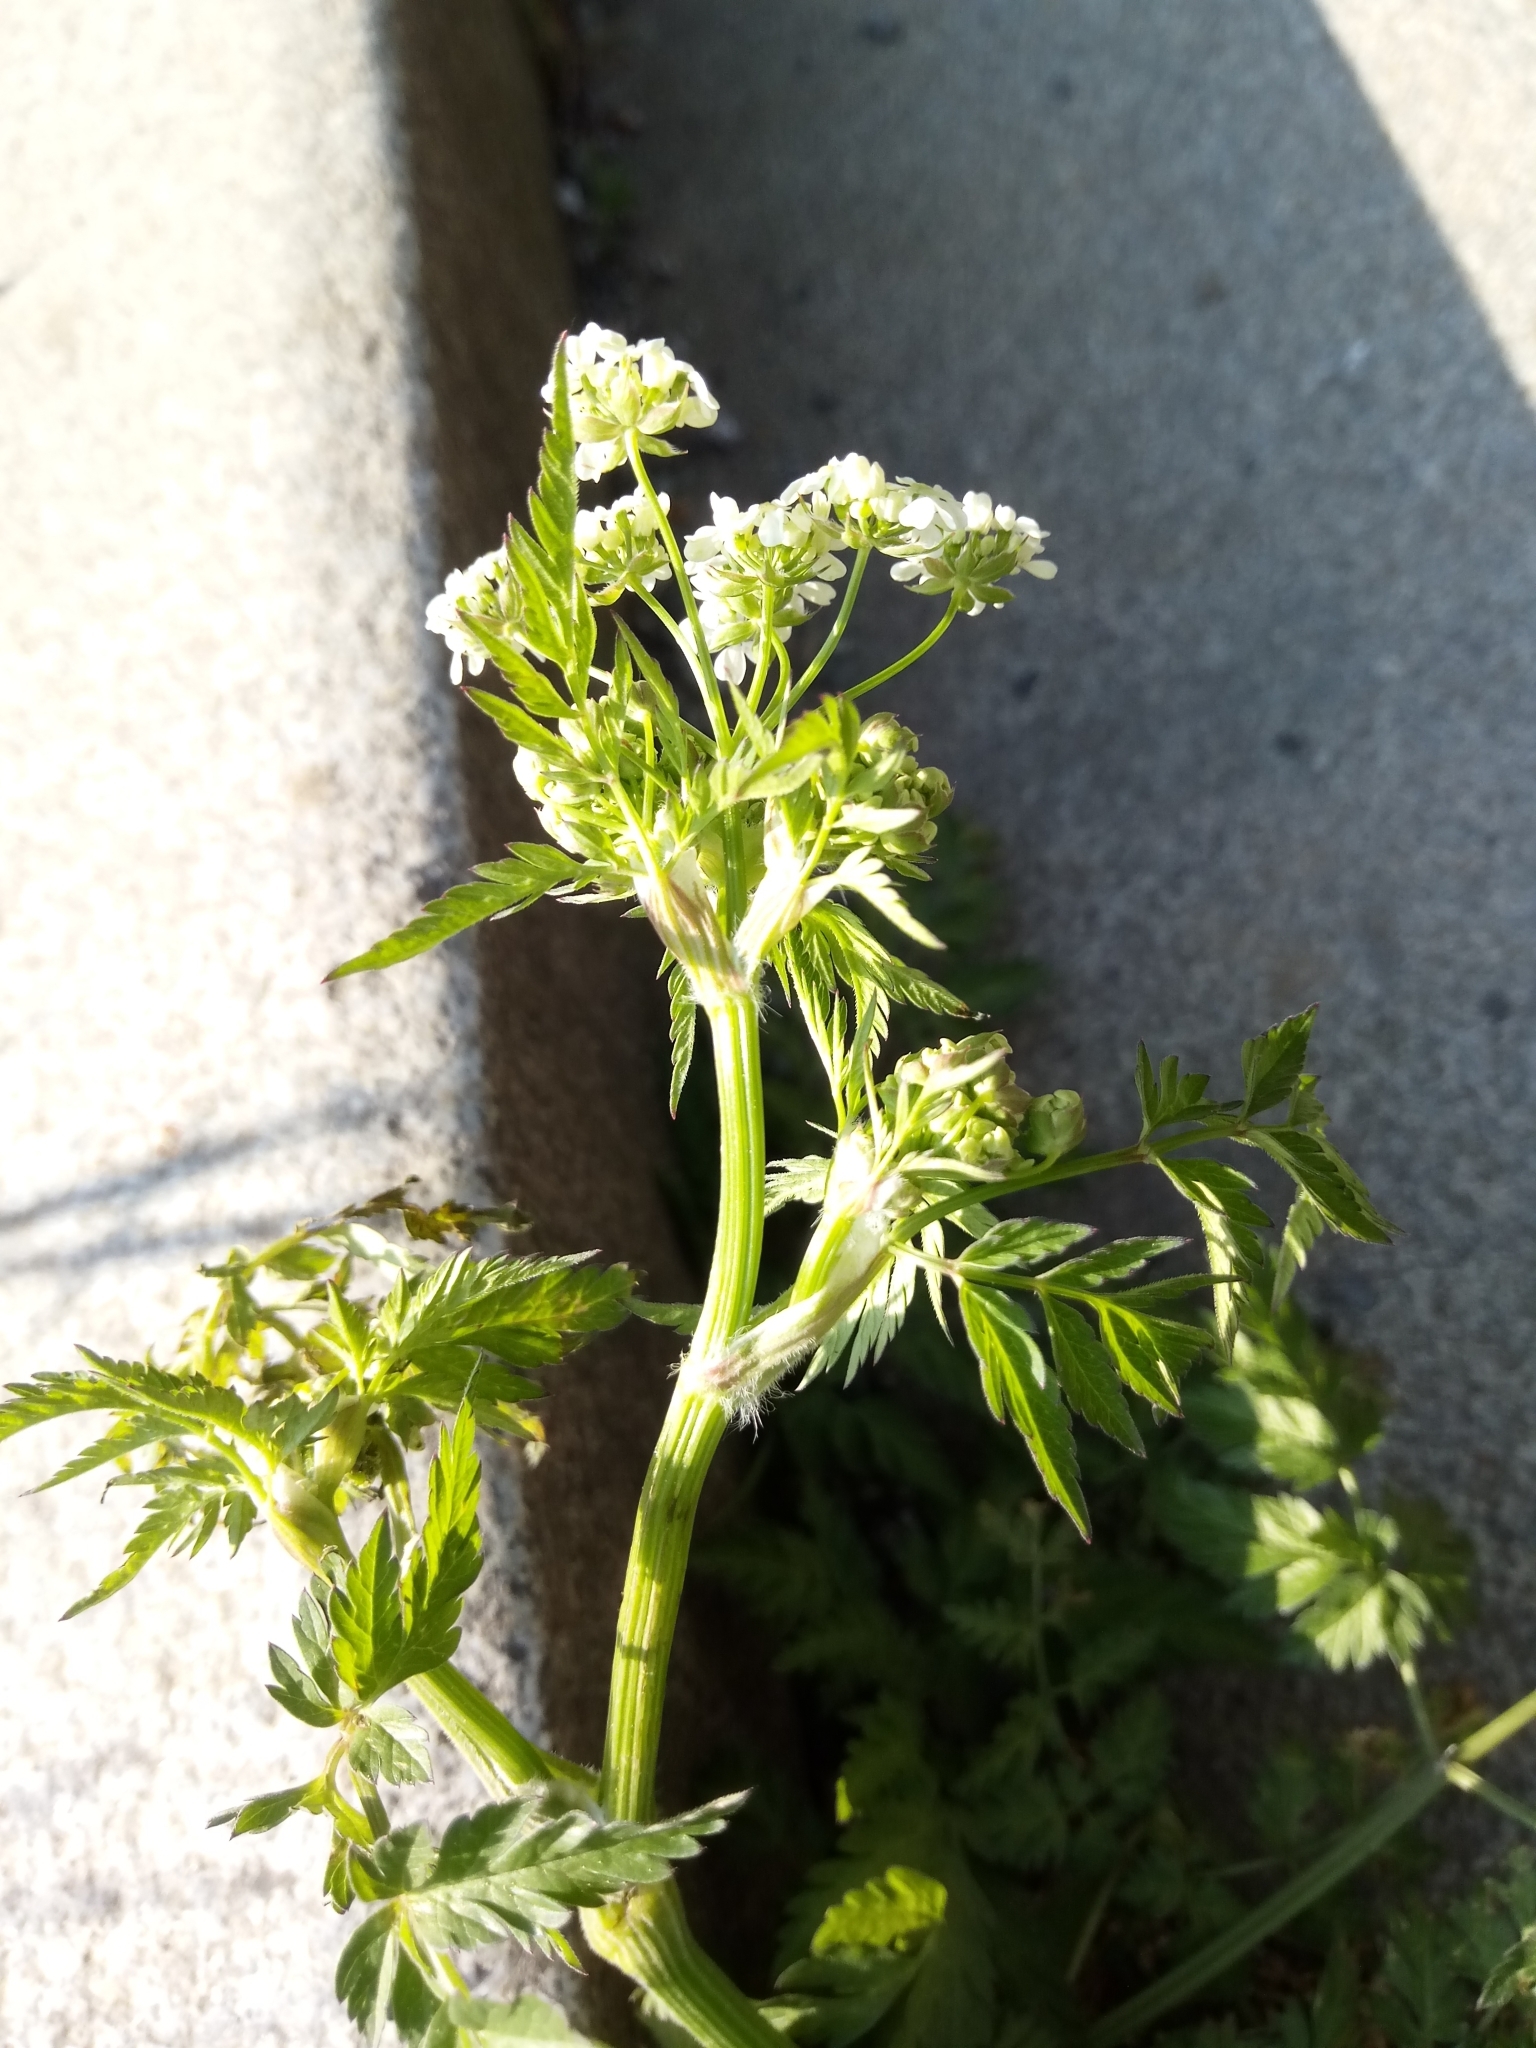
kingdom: Plantae
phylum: Tracheophyta
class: Magnoliopsida
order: Apiales
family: Apiaceae
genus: Anthriscus
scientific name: Anthriscus sylvestris
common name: Cow parsley
